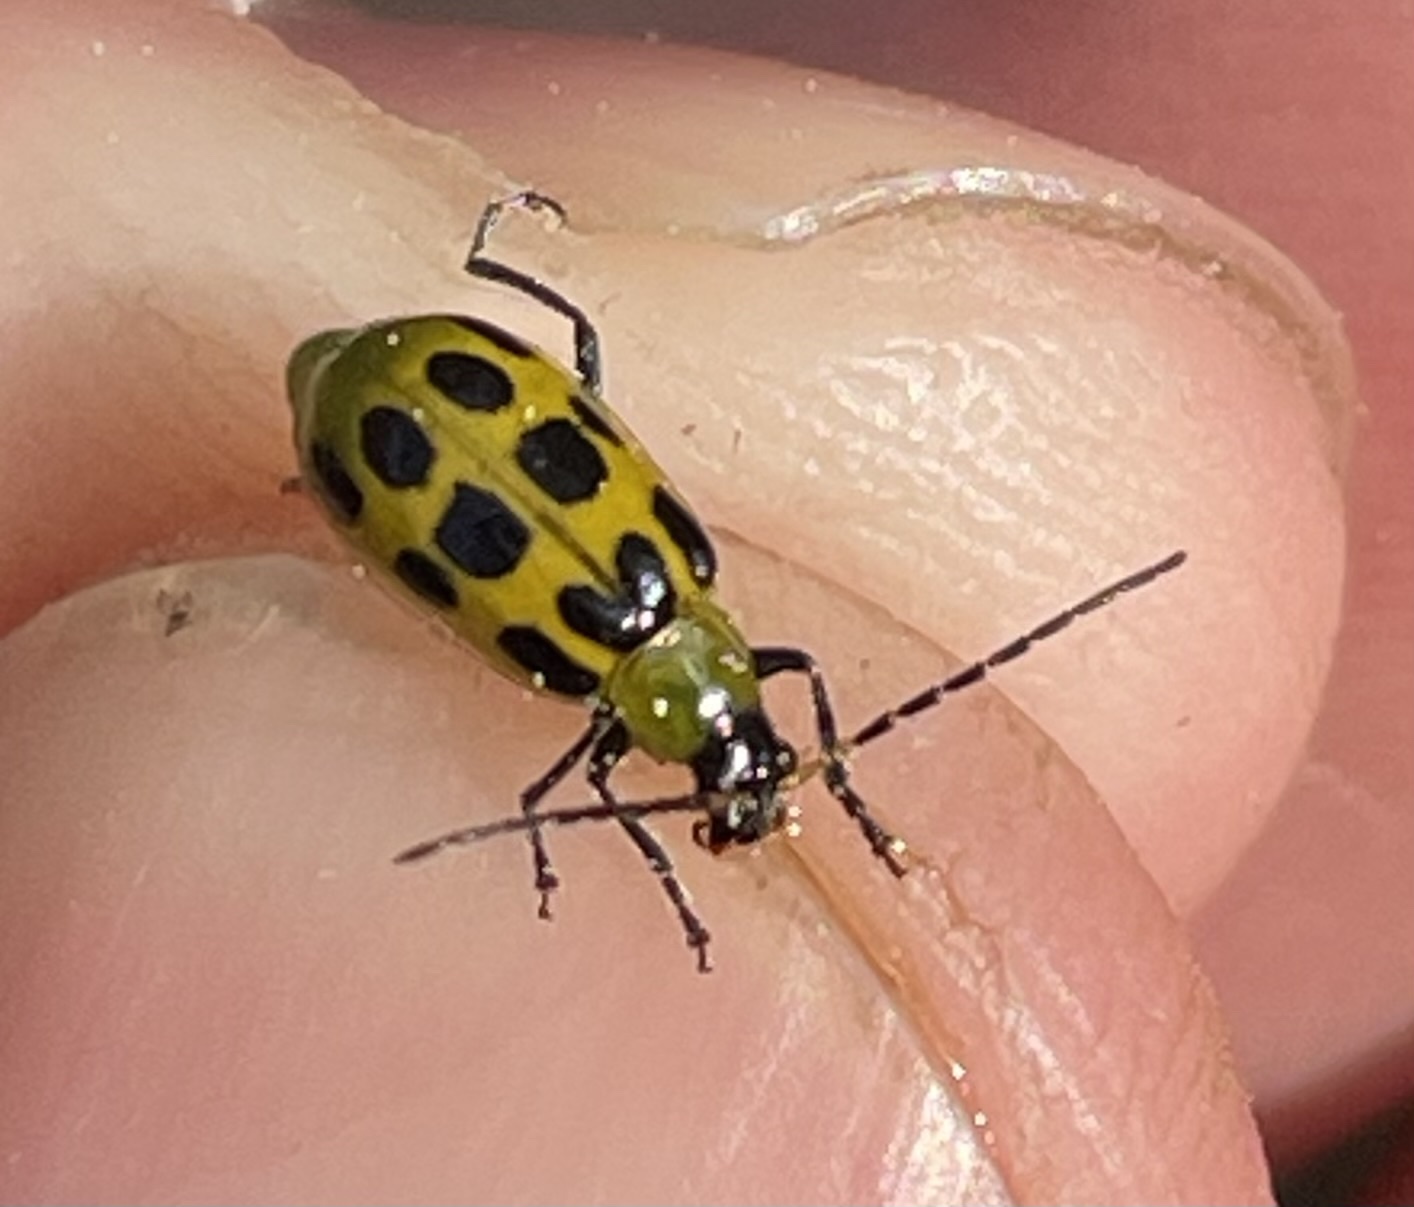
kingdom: Animalia
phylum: Arthropoda
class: Insecta
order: Coleoptera
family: Chrysomelidae
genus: Diabrotica
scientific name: Diabrotica undecimpunctata
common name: Spotted cucumber beetle
